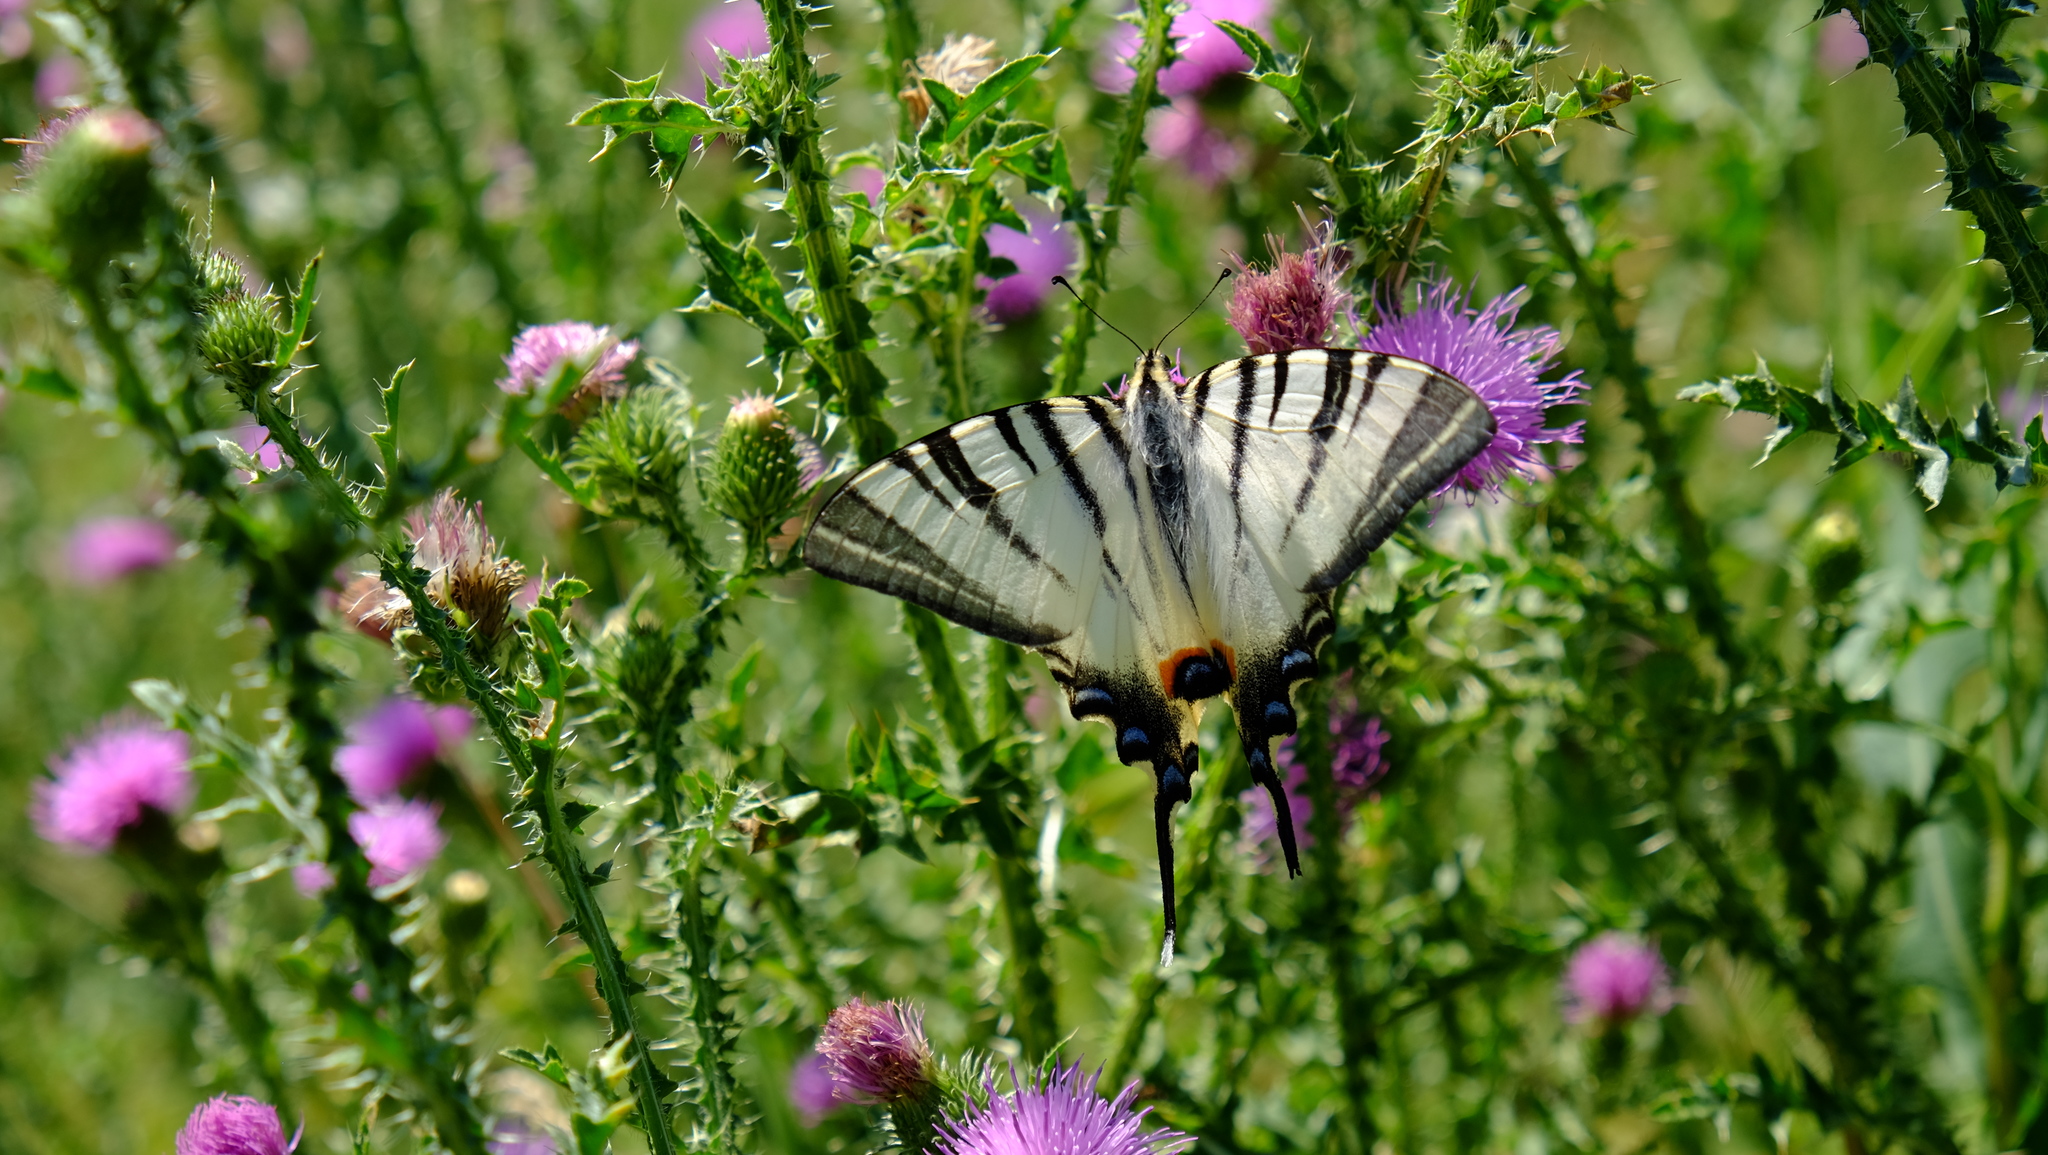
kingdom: Animalia
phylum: Arthropoda
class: Insecta
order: Lepidoptera
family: Papilionidae
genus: Iphiclides
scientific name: Iphiclides podalirius
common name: Scarce swallowtail
